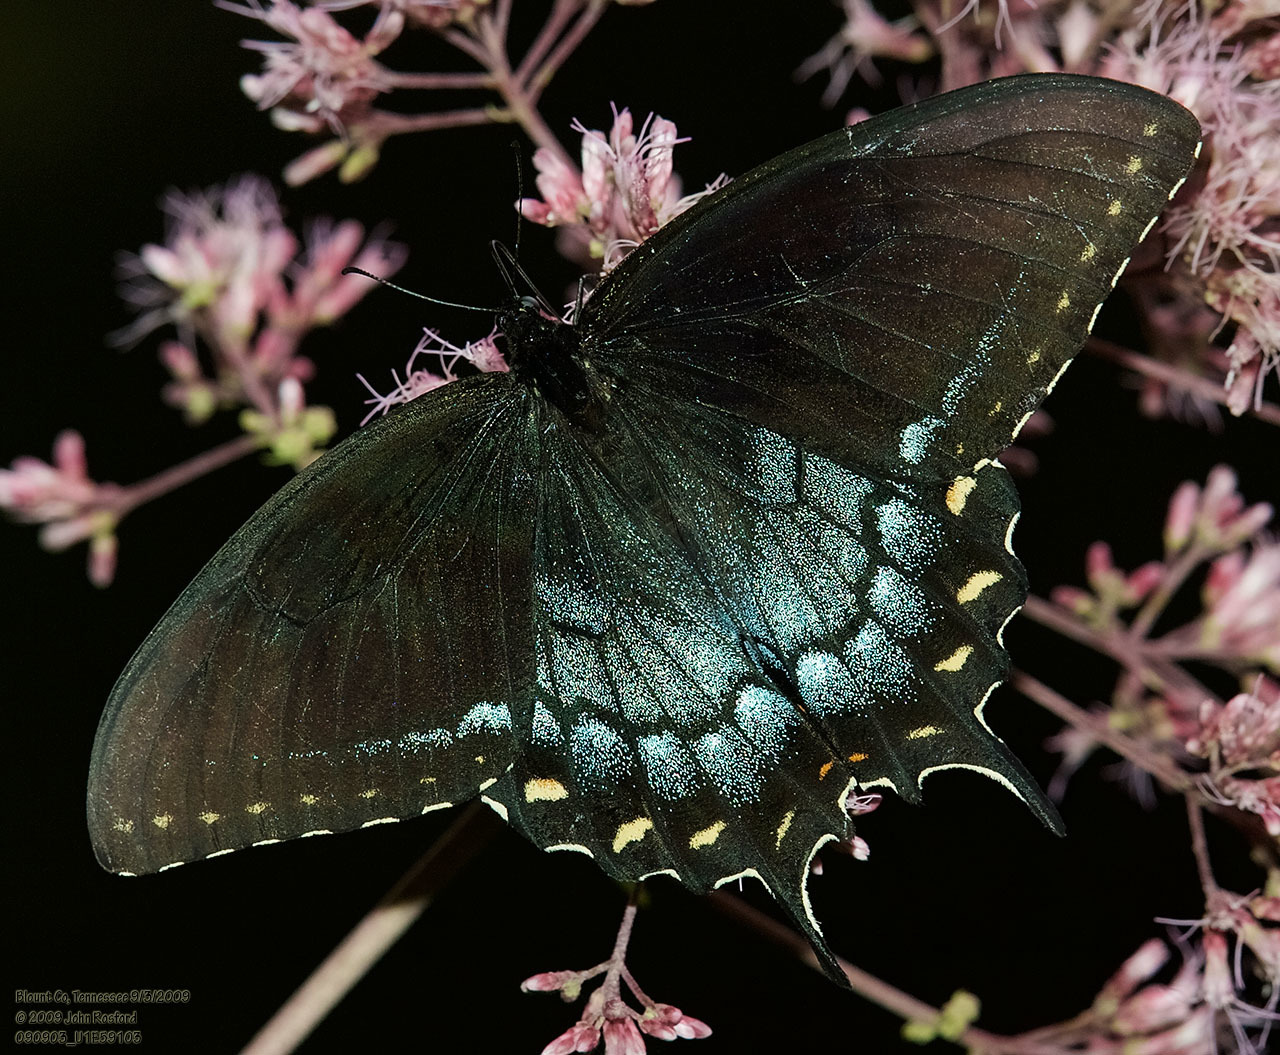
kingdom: Animalia
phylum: Arthropoda
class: Insecta
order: Lepidoptera
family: Papilionidae
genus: Papilio
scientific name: Papilio glaucus
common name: Tiger swallowtail
